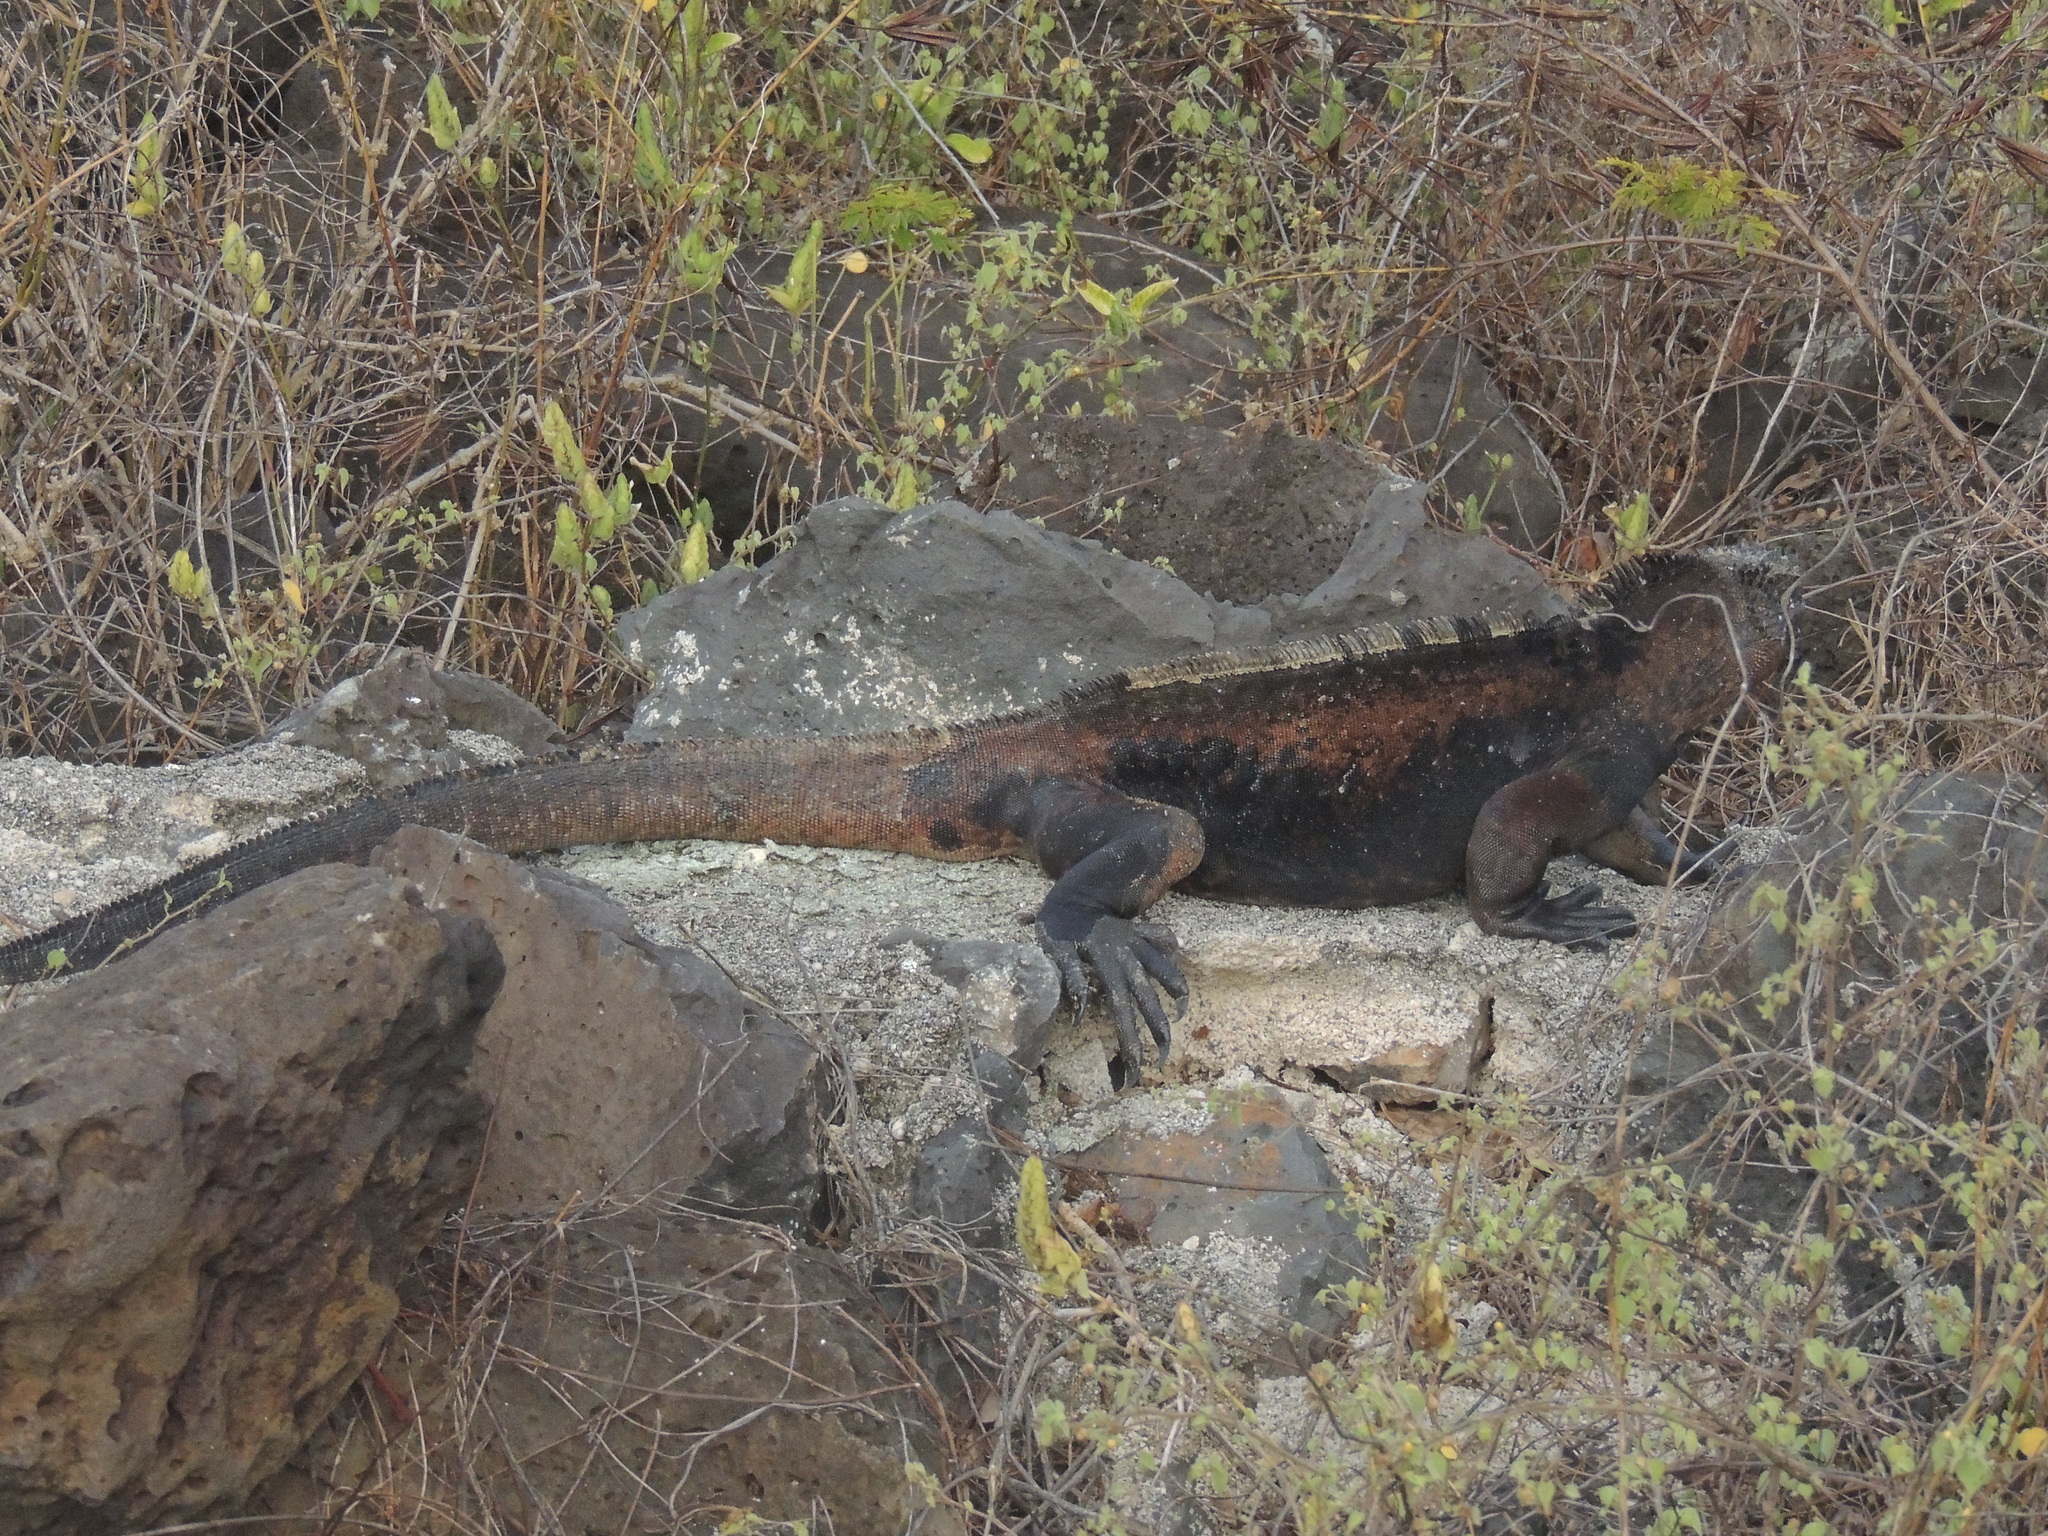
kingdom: Animalia
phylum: Chordata
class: Squamata
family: Iguanidae
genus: Amblyrhynchus
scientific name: Amblyrhynchus cristatus
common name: Marine iguana
